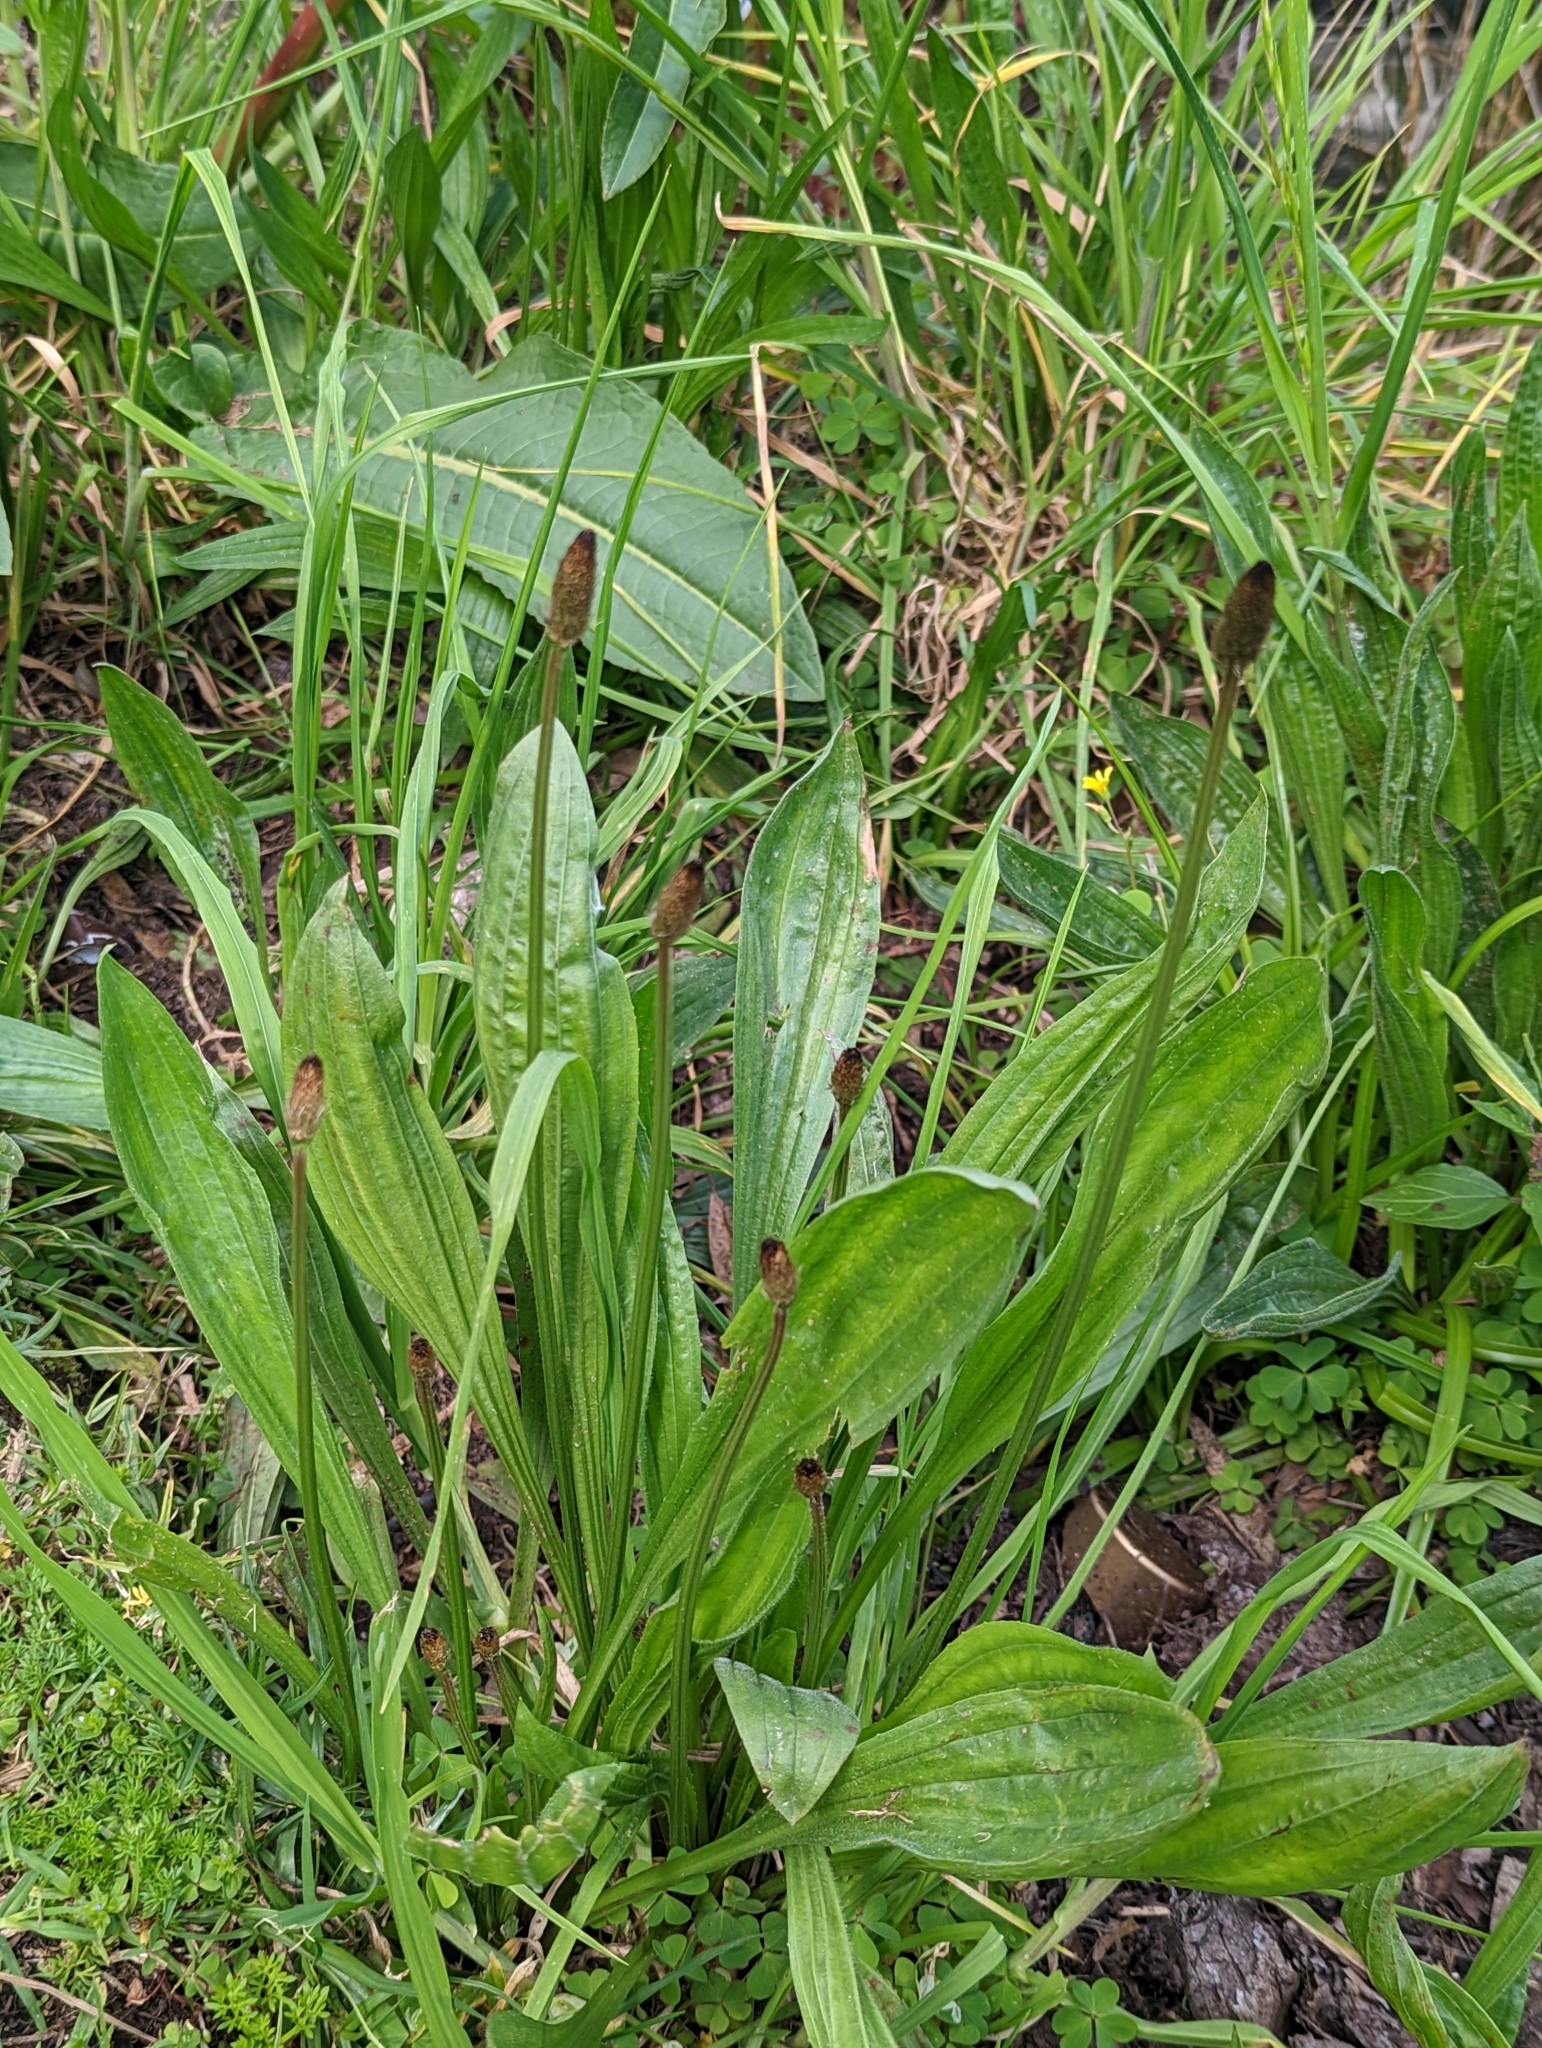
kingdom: Plantae
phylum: Tracheophyta
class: Magnoliopsida
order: Lamiales
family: Plantaginaceae
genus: Plantago
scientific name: Plantago lanceolata
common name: Ribwort plantain
